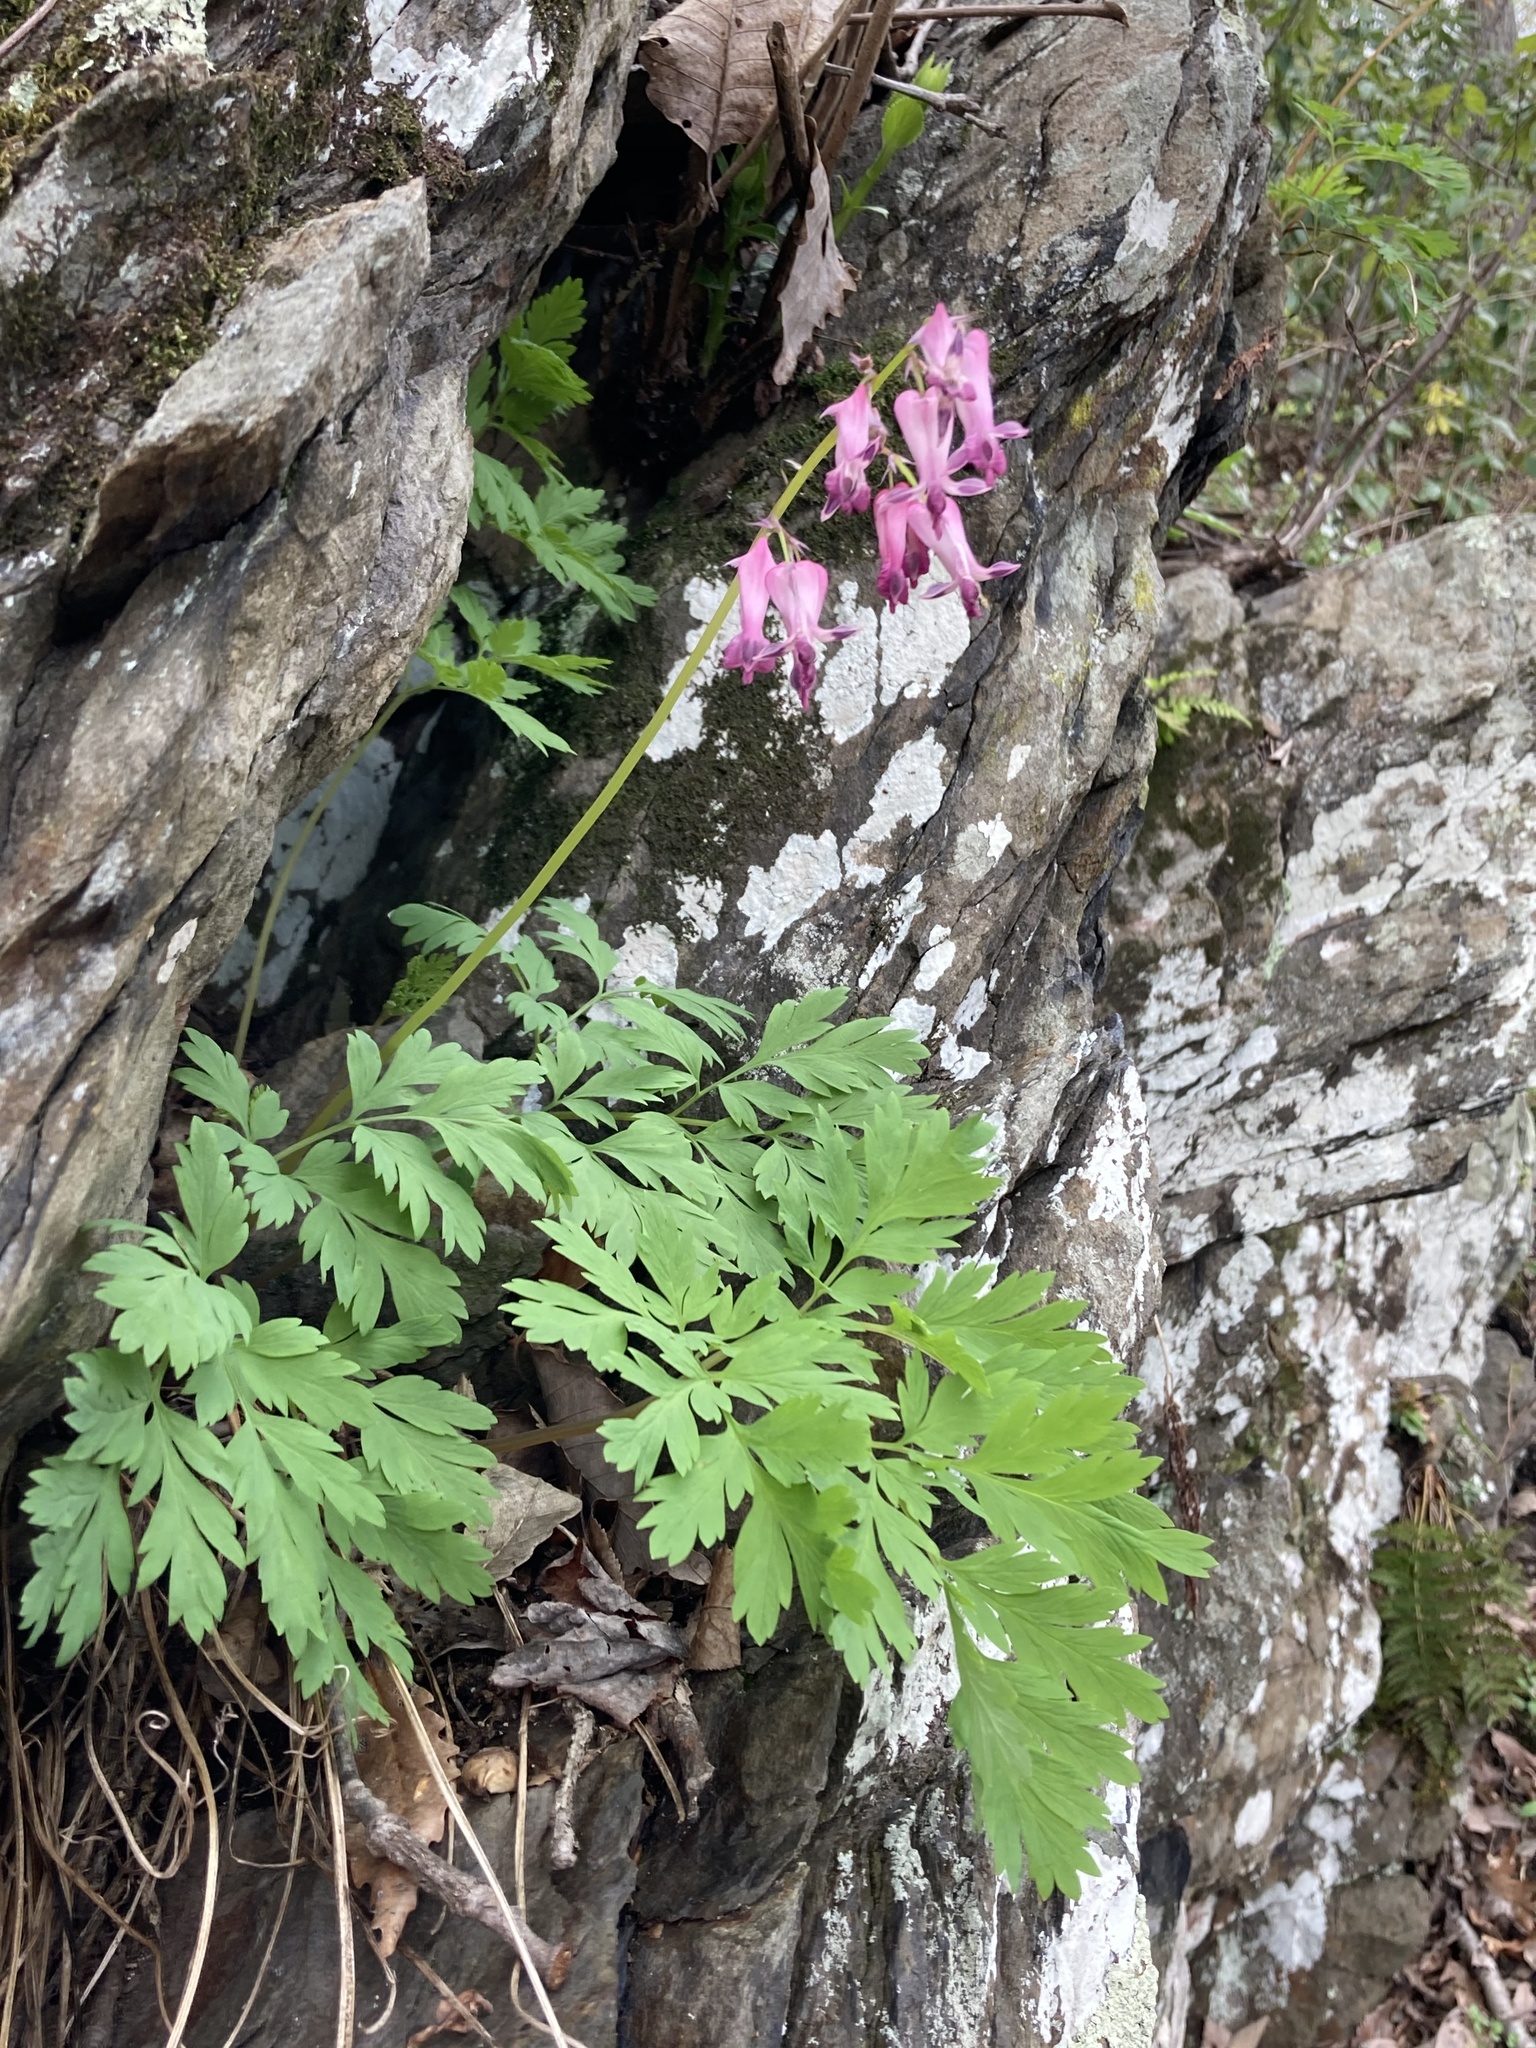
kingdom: Plantae
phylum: Tracheophyta
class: Magnoliopsida
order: Ranunculales
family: Papaveraceae
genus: Dicentra
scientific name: Dicentra eximia
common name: Turkey-corn
